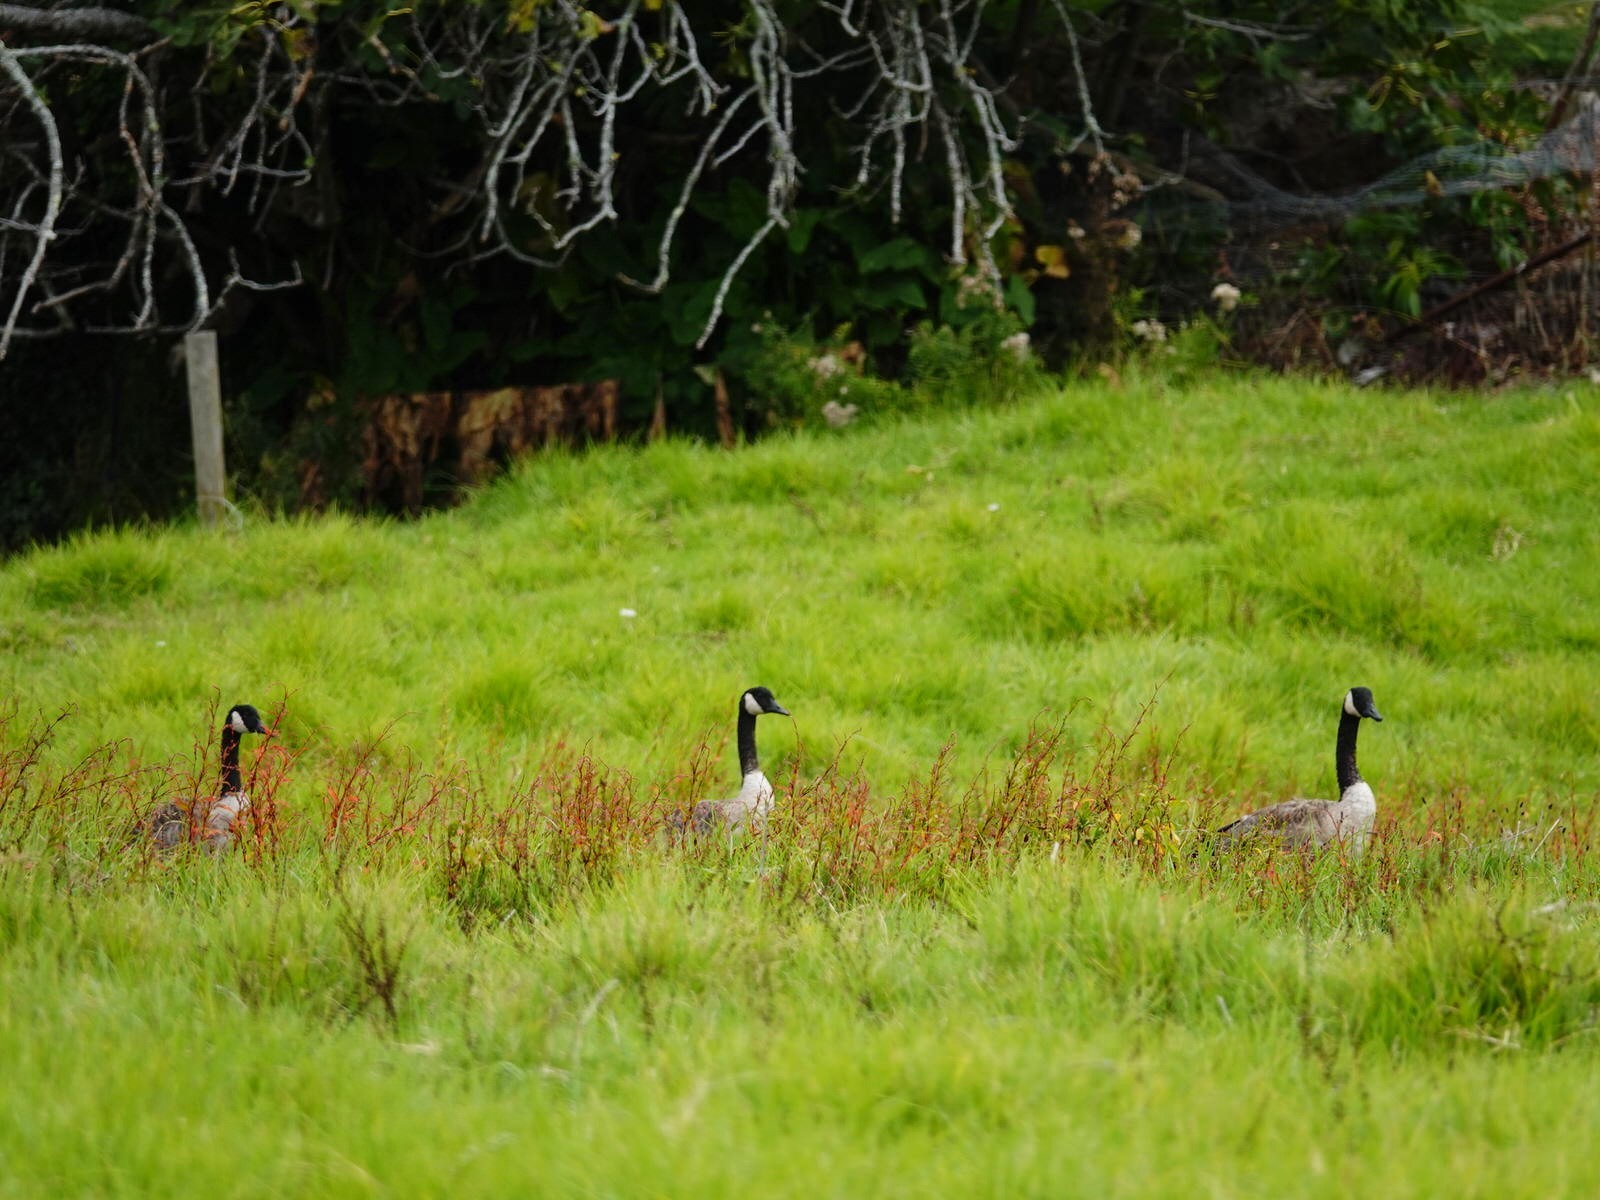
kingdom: Animalia
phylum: Chordata
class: Aves
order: Anseriformes
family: Anatidae
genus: Branta
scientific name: Branta canadensis
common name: Canada goose
